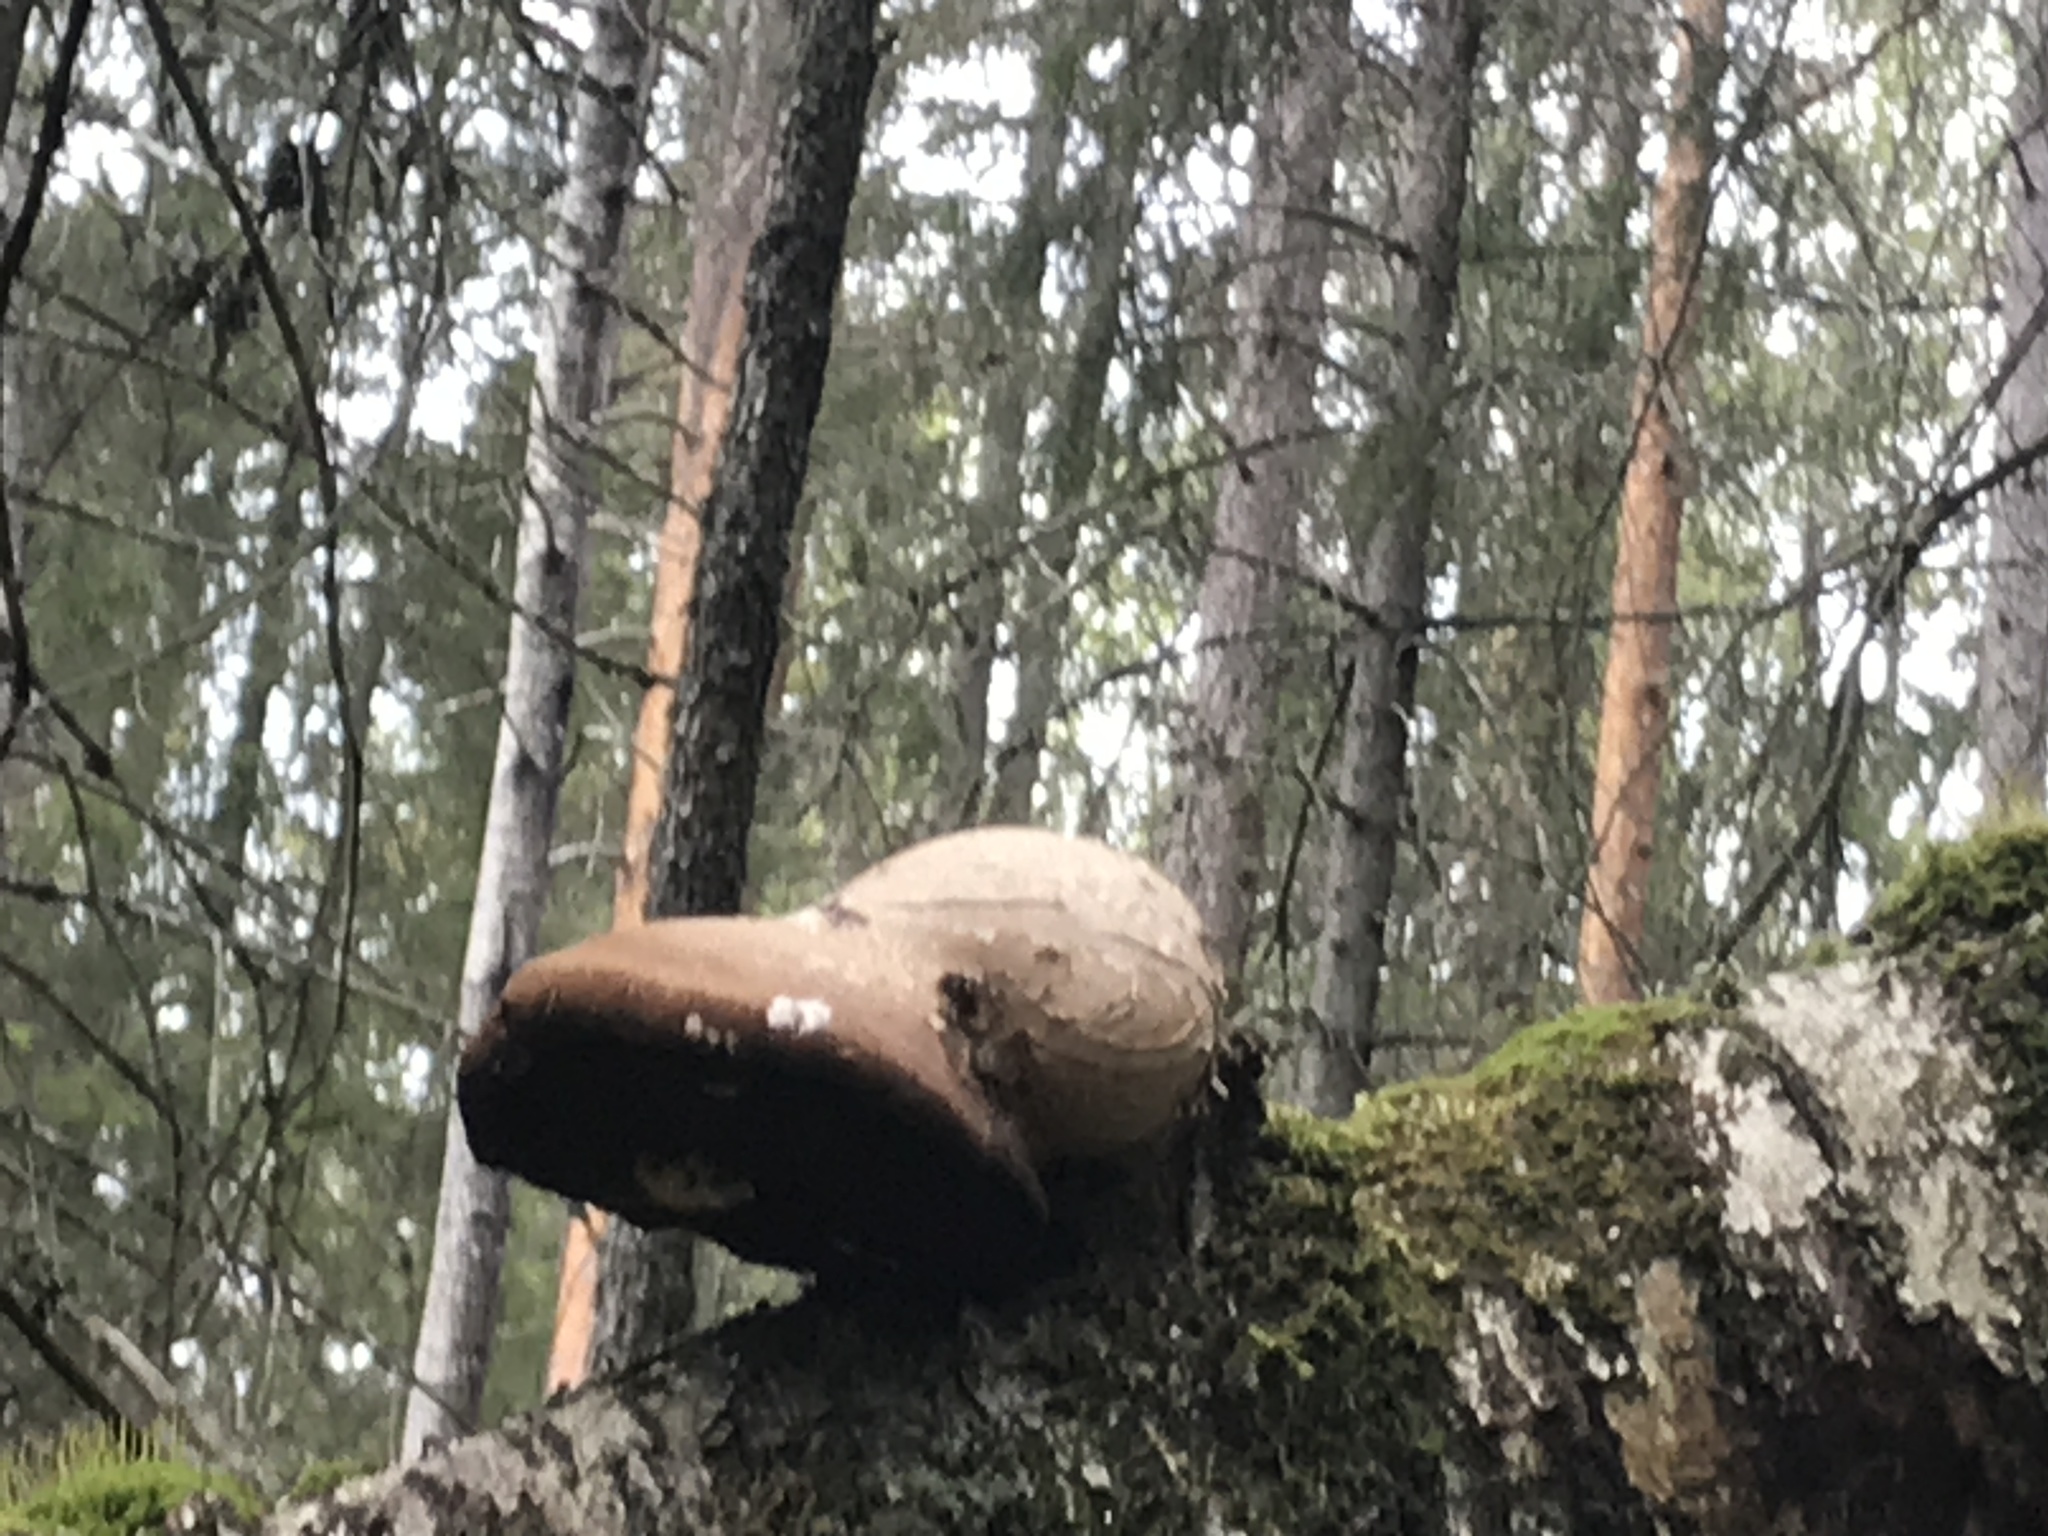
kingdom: Fungi
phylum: Basidiomycota
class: Agaricomycetes
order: Polyporales
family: Fomitopsidaceae
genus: Fomitopsis
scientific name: Fomitopsis betulina
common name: Birch polypore
